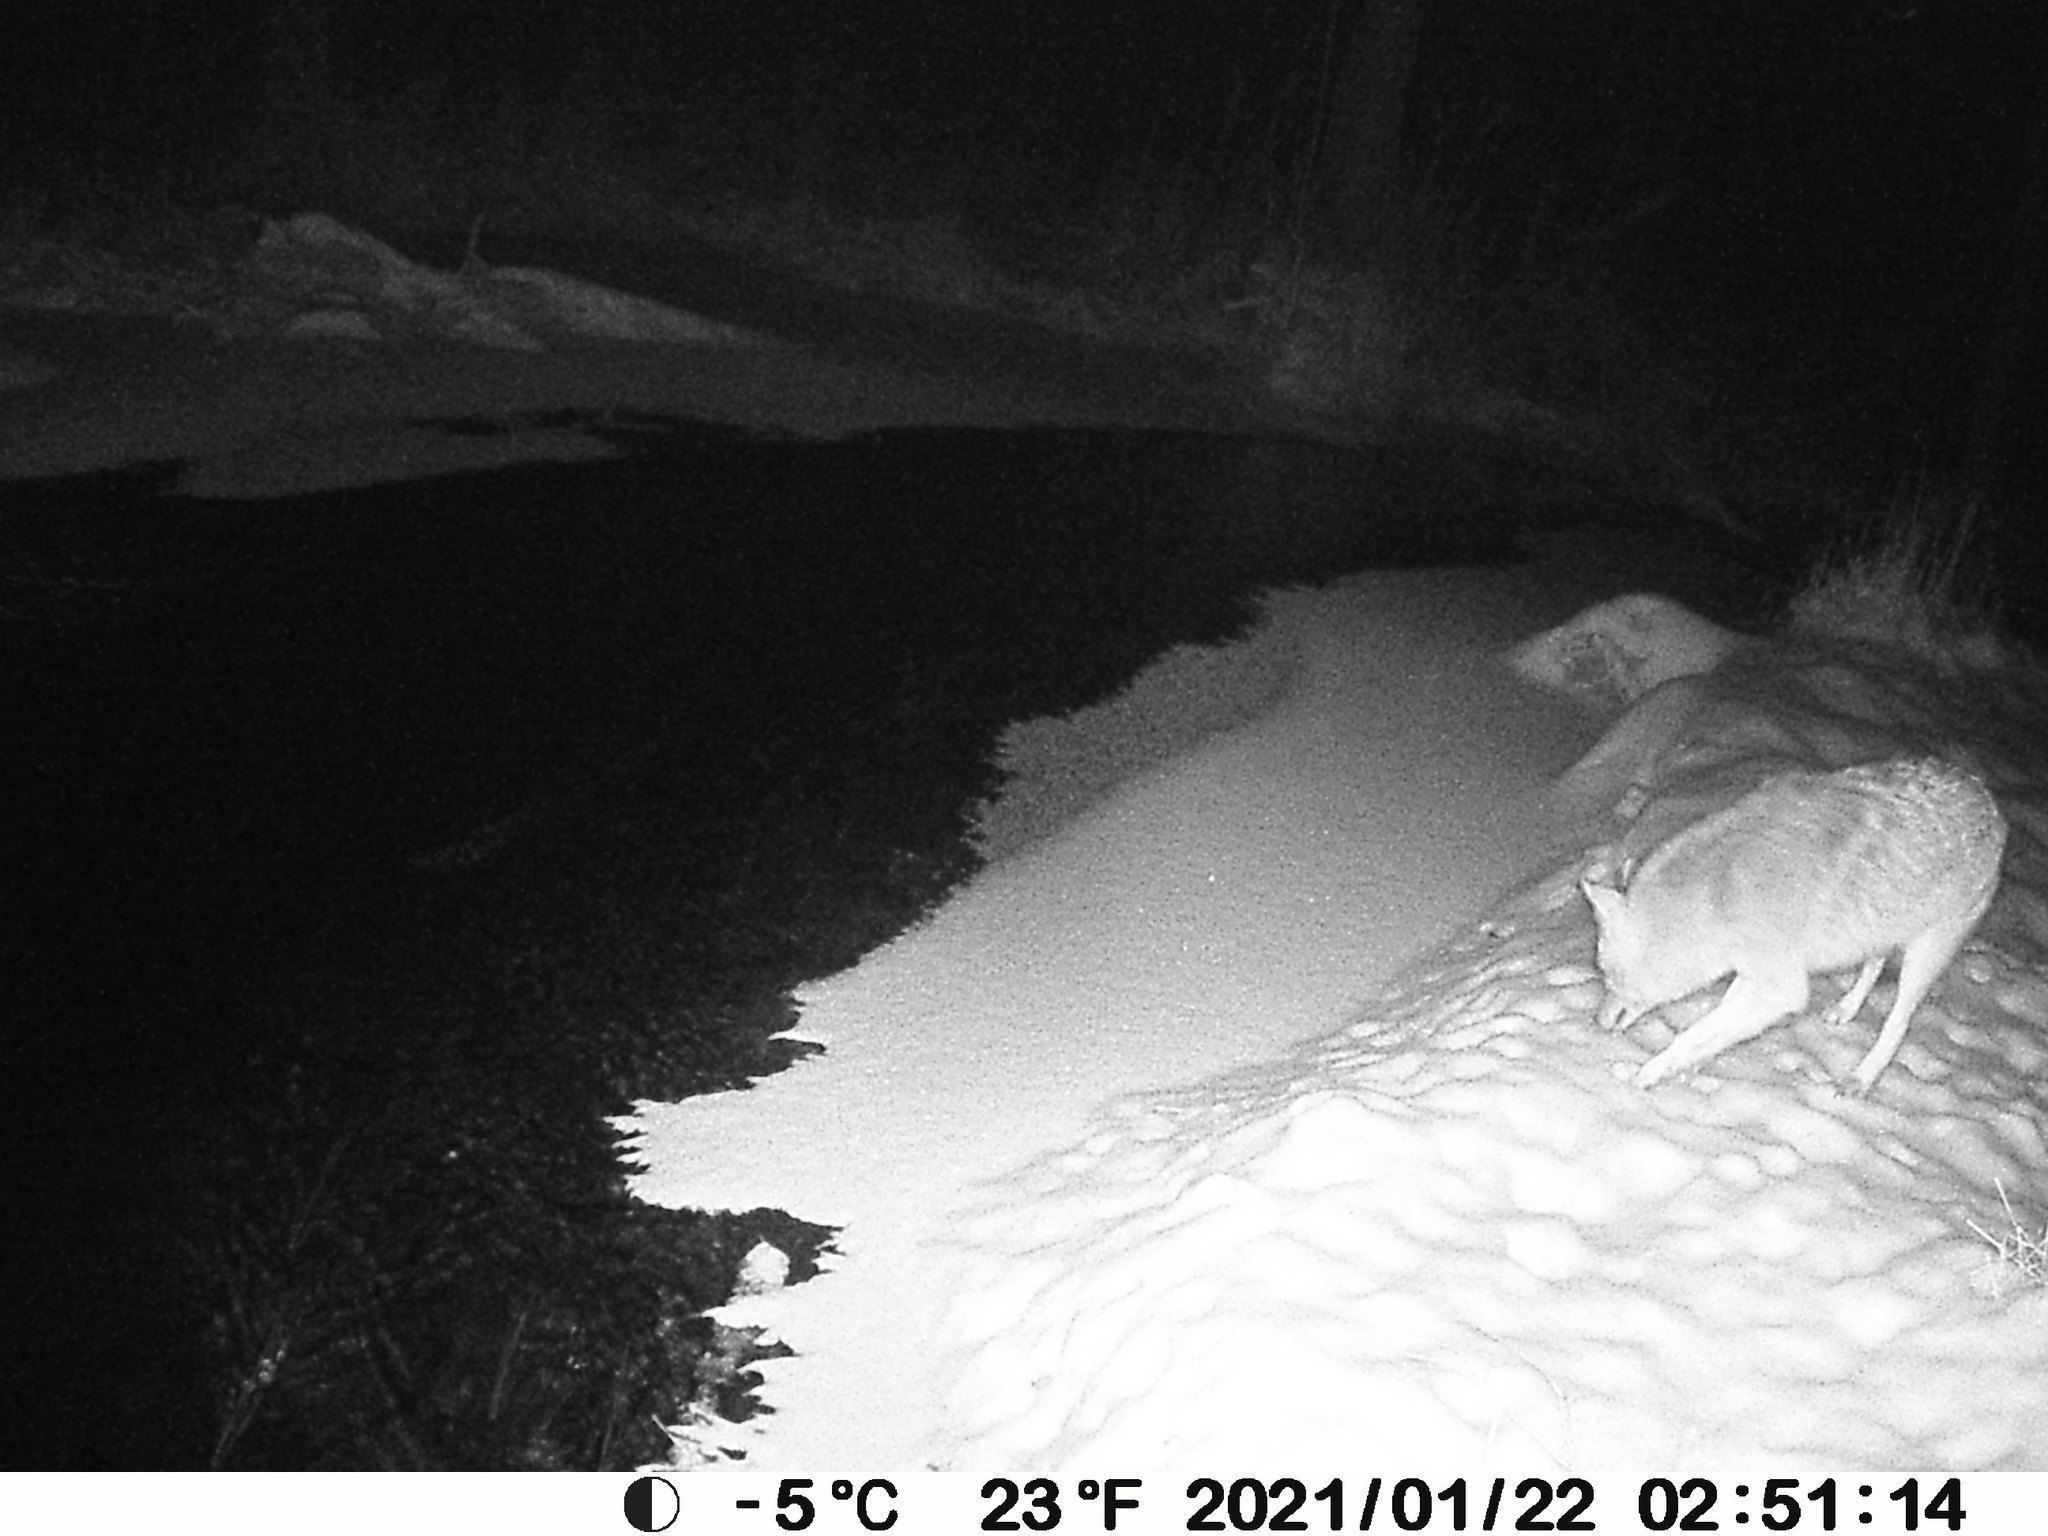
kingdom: Animalia
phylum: Chordata
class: Mammalia
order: Carnivora
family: Canidae
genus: Canis
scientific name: Canis latrans
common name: Coyote
